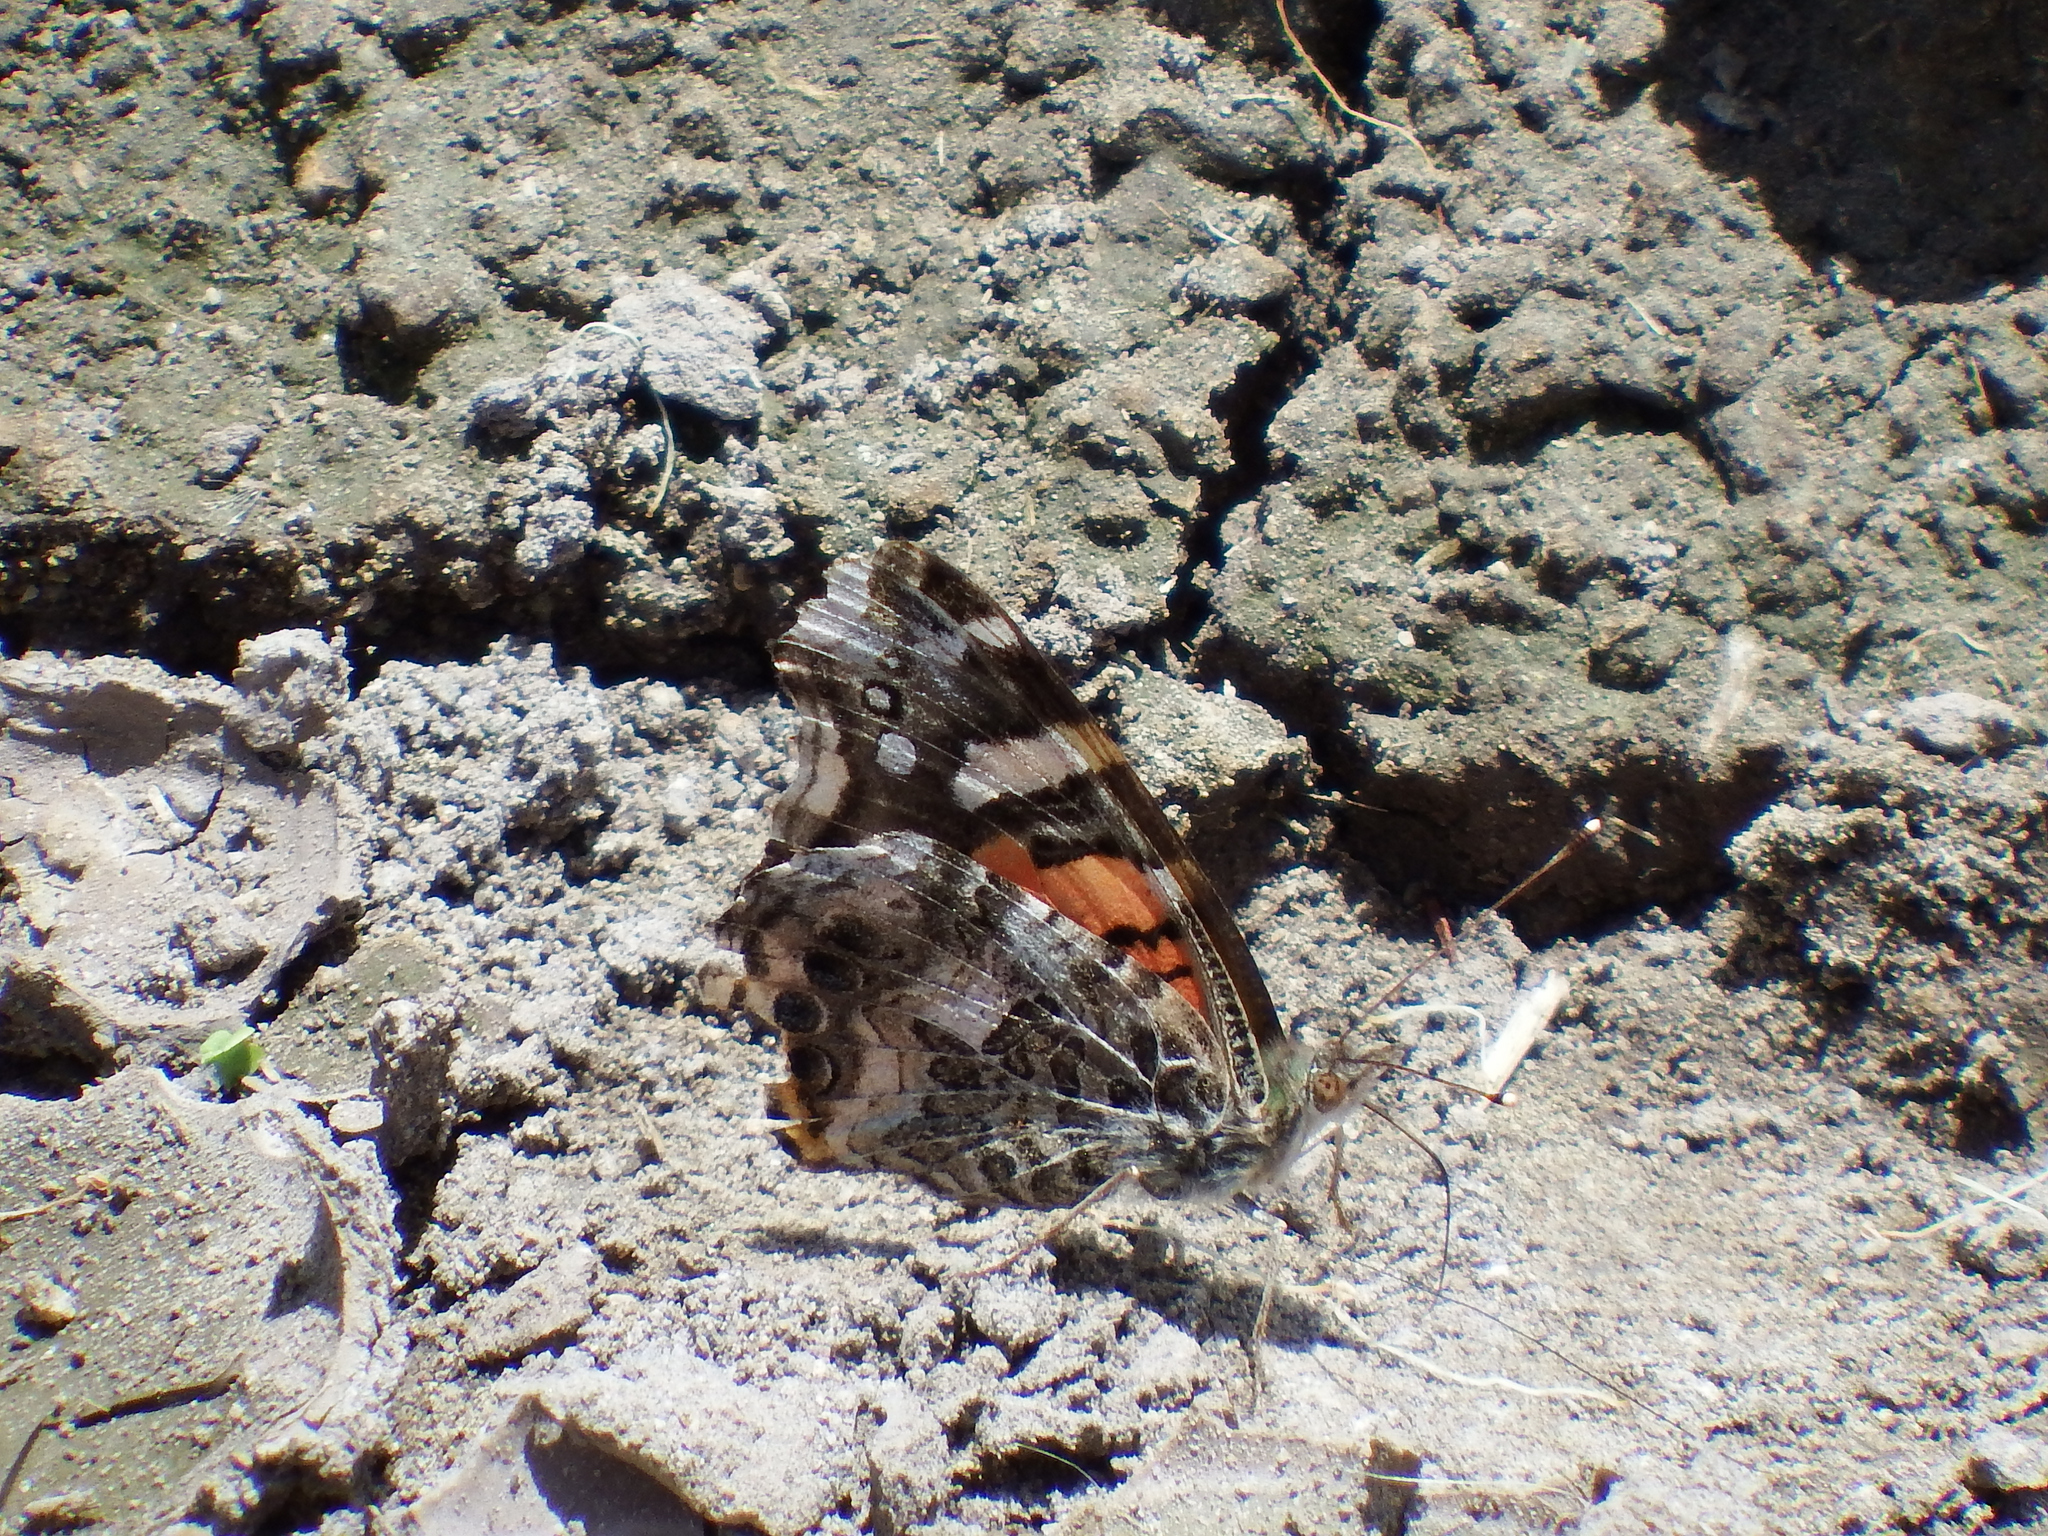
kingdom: Animalia
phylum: Arthropoda
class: Insecta
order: Lepidoptera
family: Nymphalidae
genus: Vanessa
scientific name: Vanessa carye
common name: Subtropical lady
